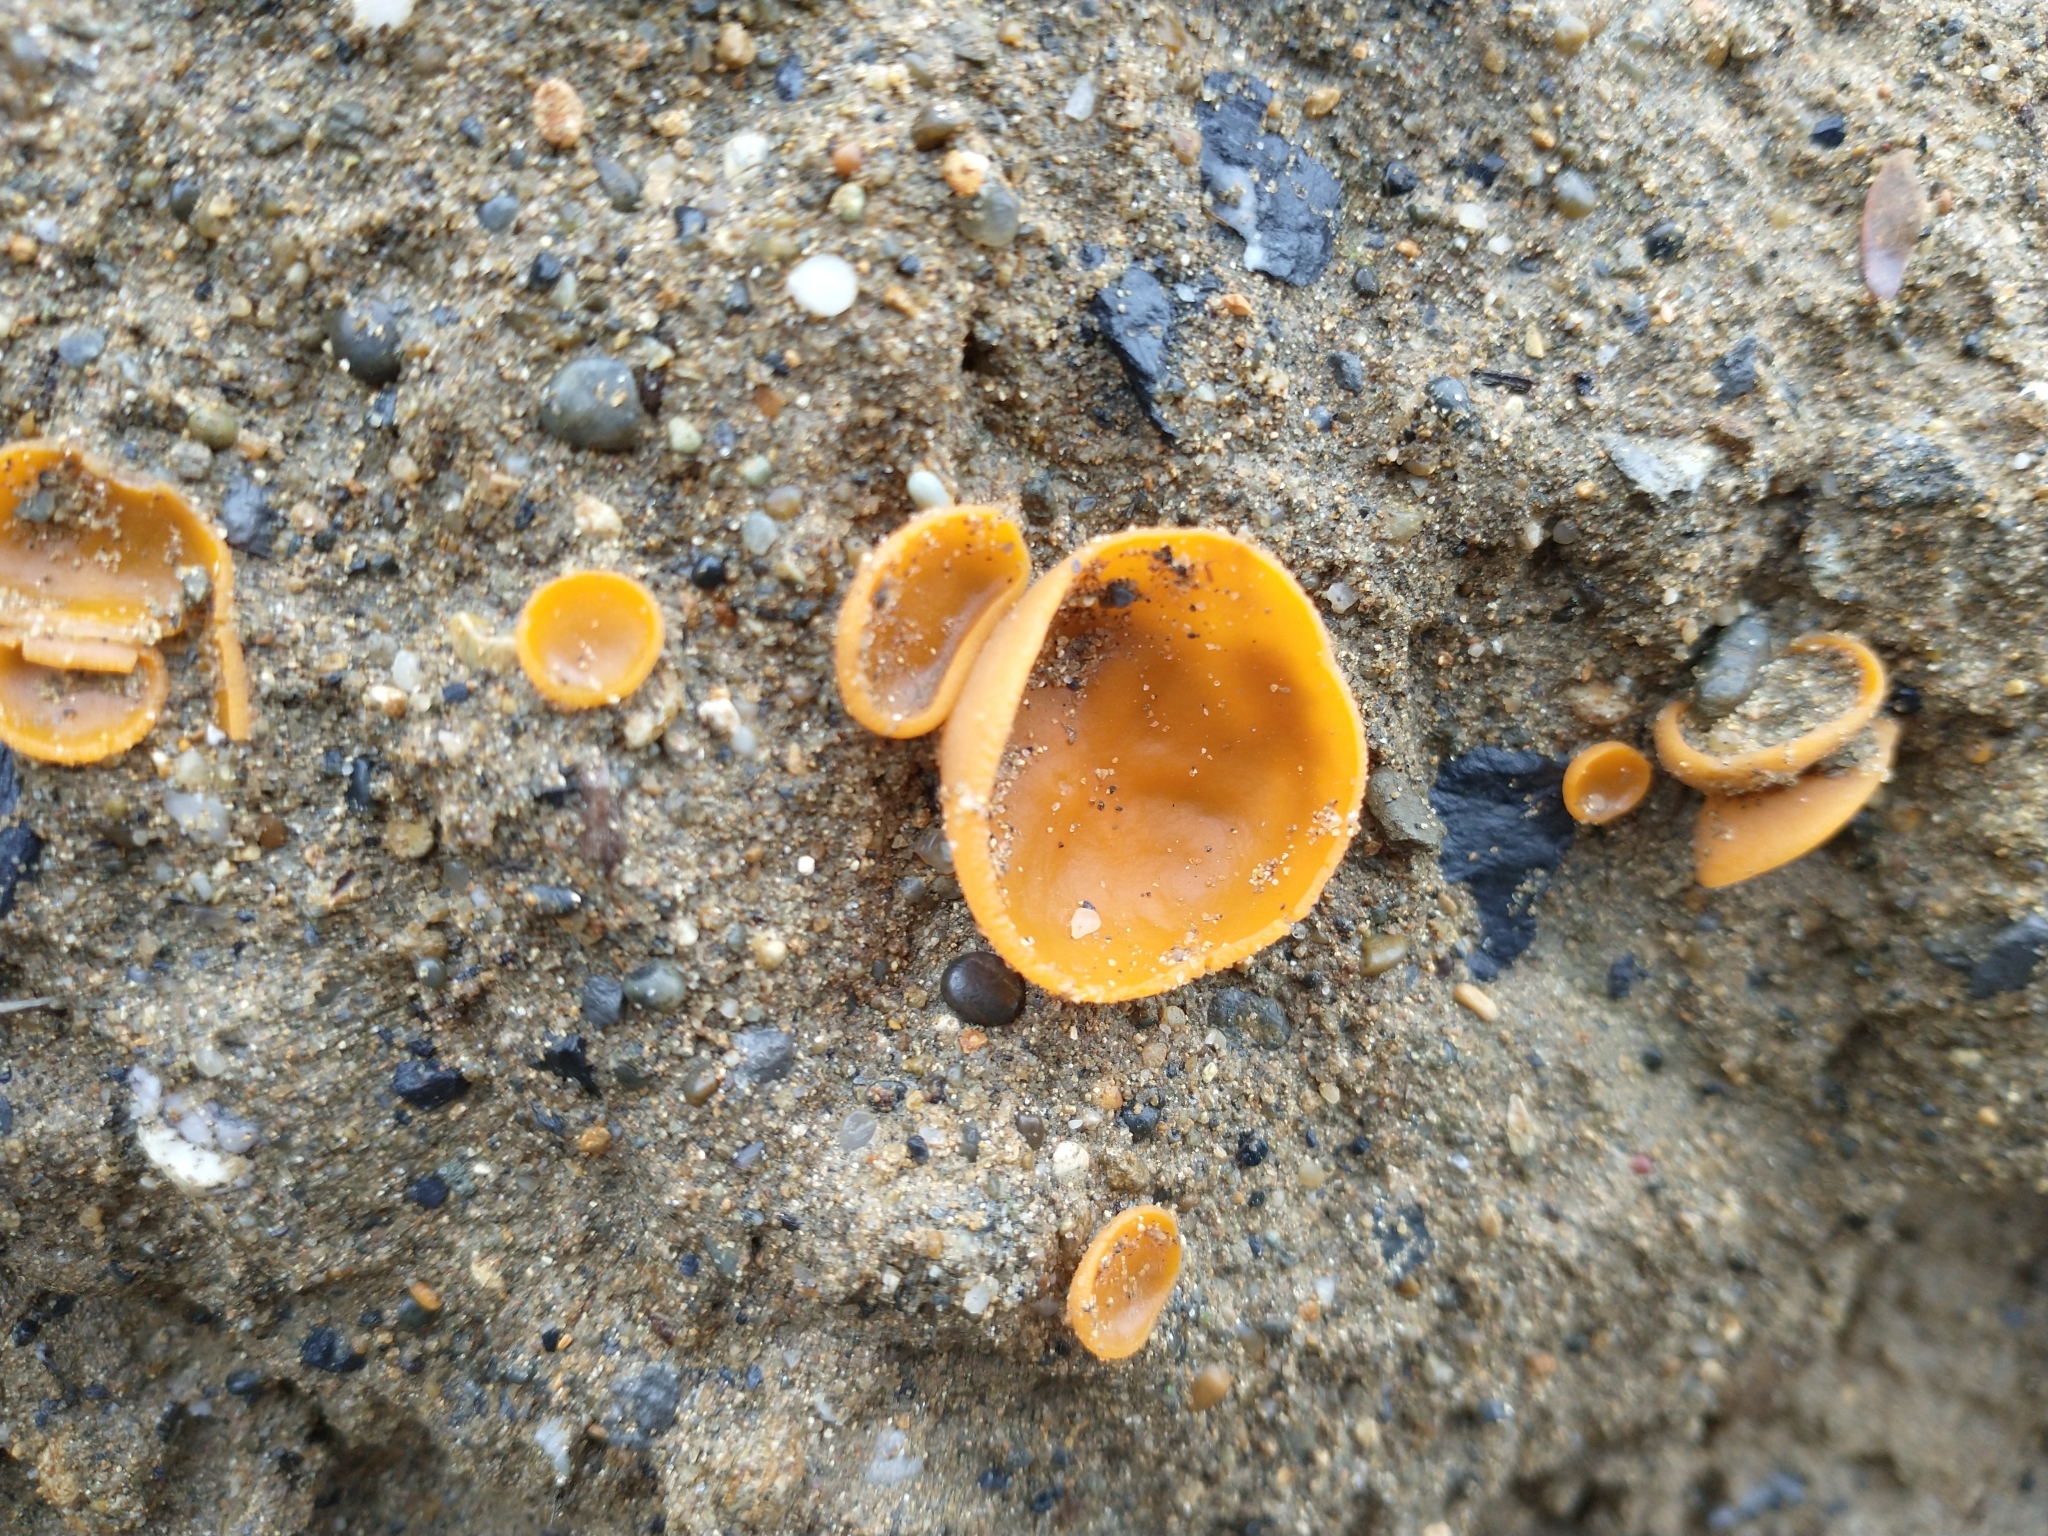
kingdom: Fungi
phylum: Ascomycota
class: Pezizomycetes
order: Pezizales
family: Pyronemataceae
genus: Aleuria
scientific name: Aleuria aurantia
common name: Orange peel fungus
